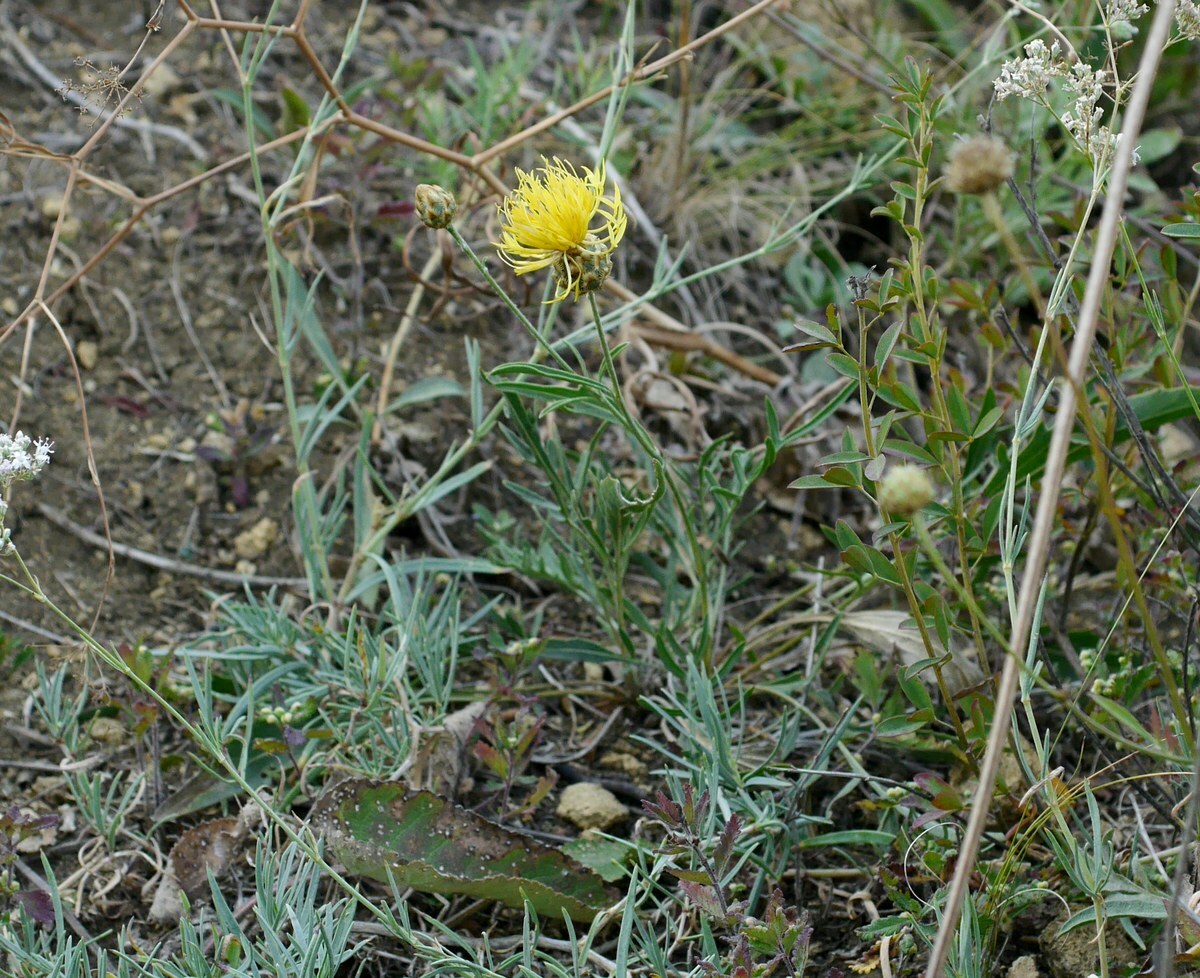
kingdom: Plantae
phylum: Tracheophyta
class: Magnoliopsida
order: Asterales
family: Asteraceae
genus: Centaurea
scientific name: Centaurea orientalis
